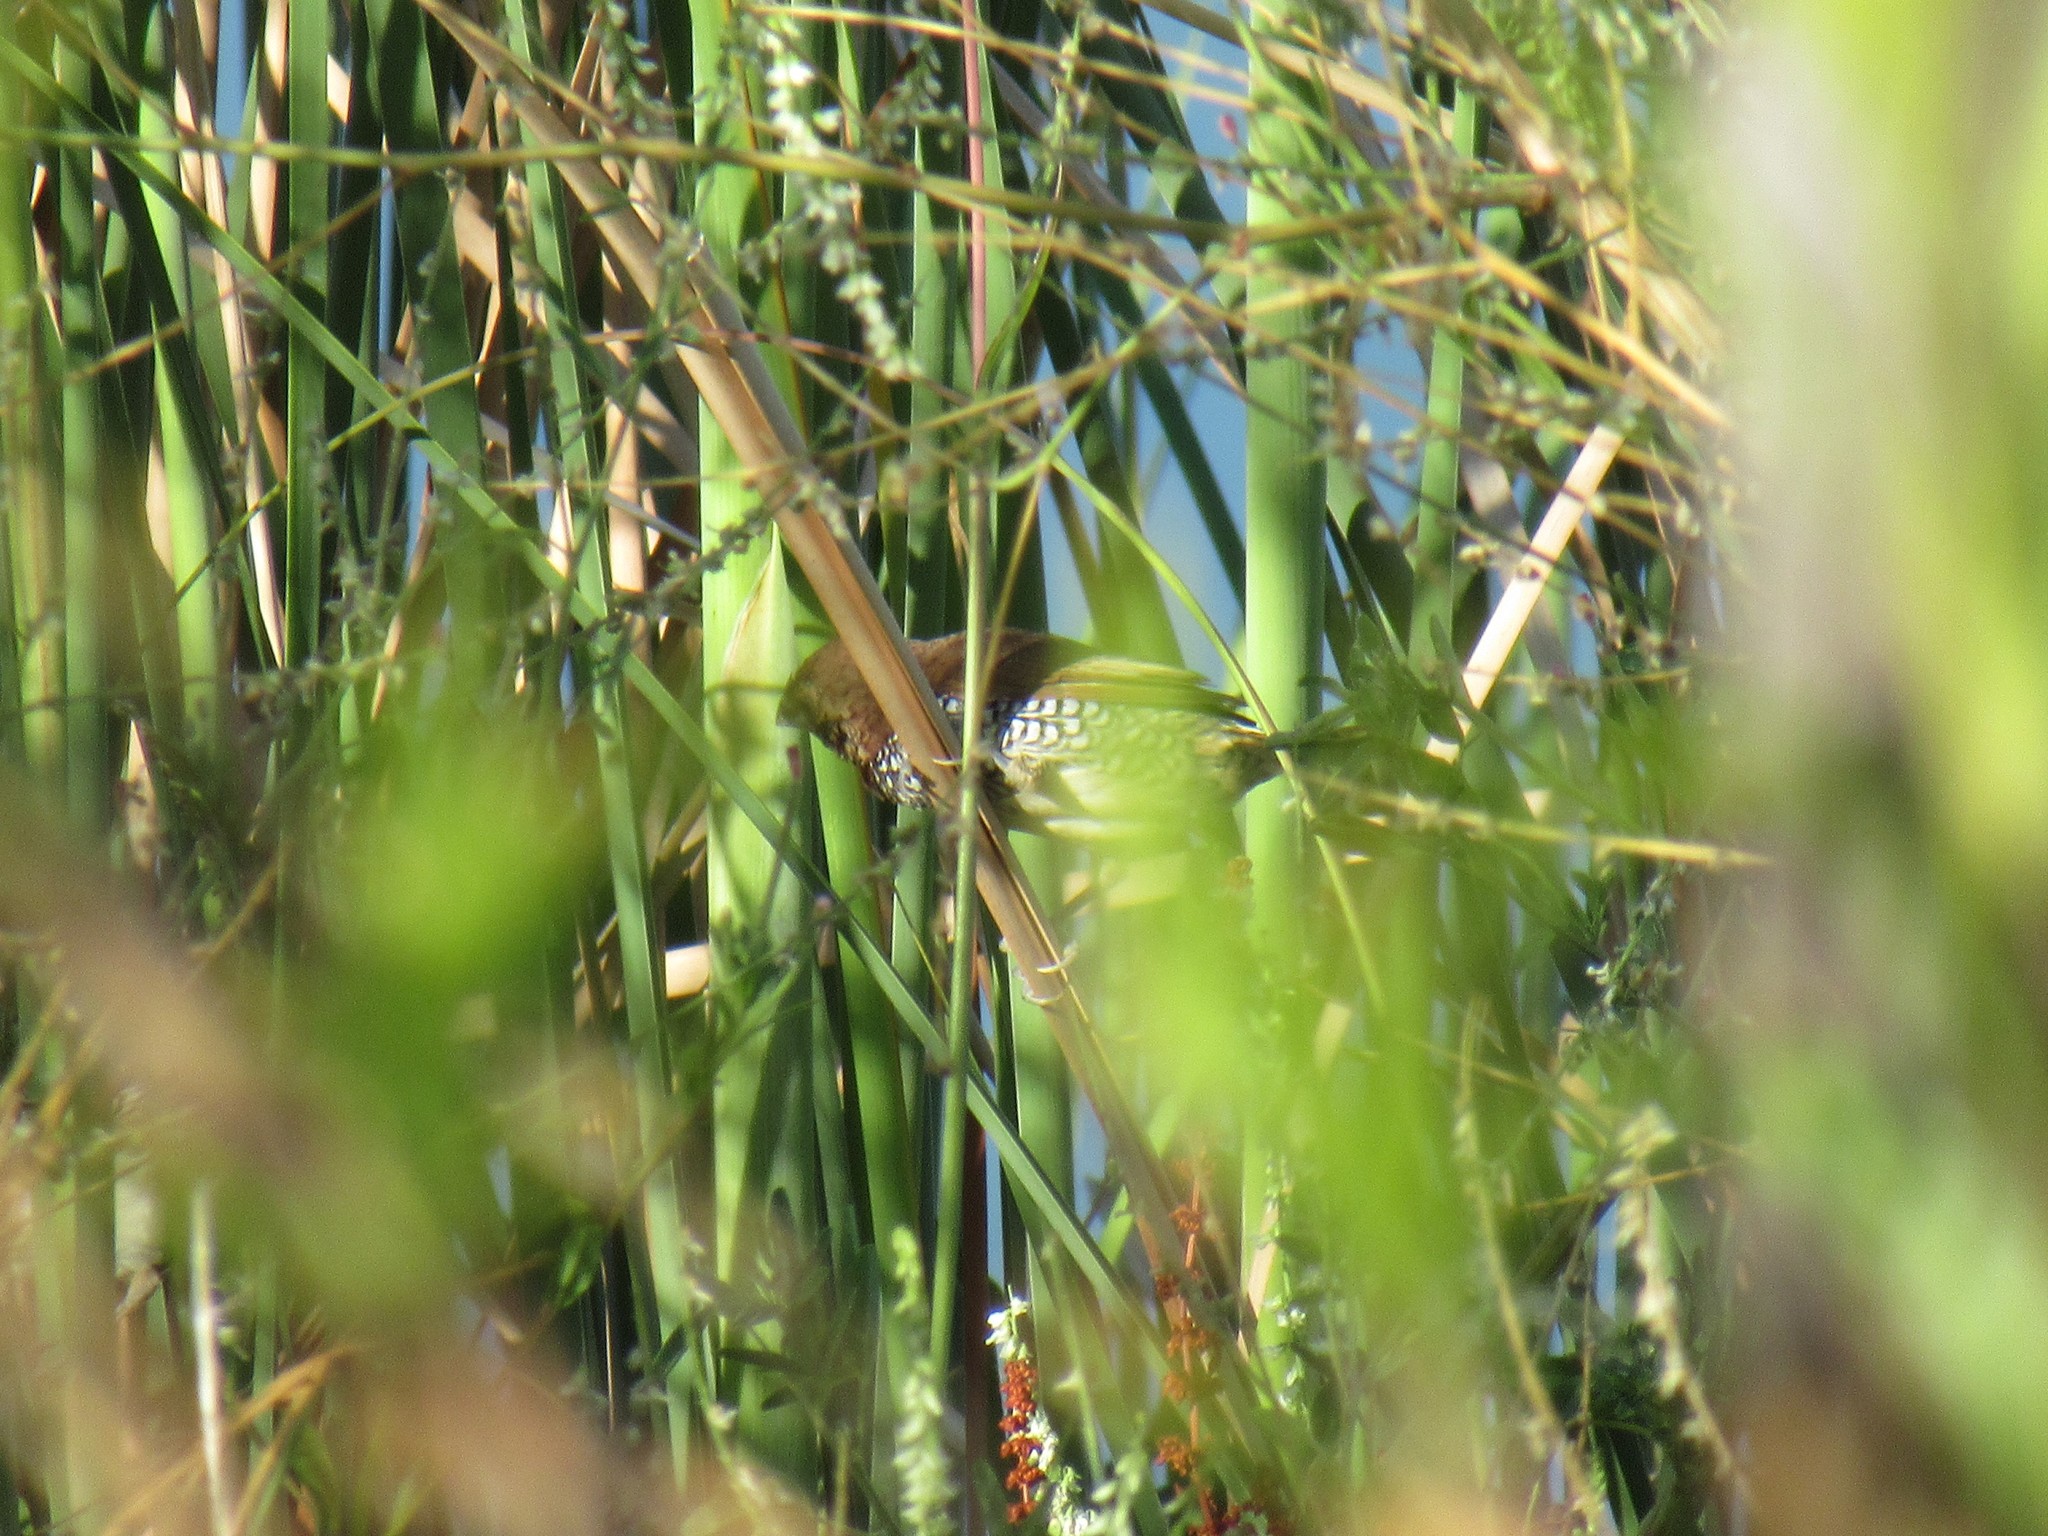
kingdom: Animalia
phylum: Chordata
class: Aves
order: Passeriformes
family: Estrildidae
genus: Lonchura
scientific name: Lonchura punctulata
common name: Scaly-breasted munia
